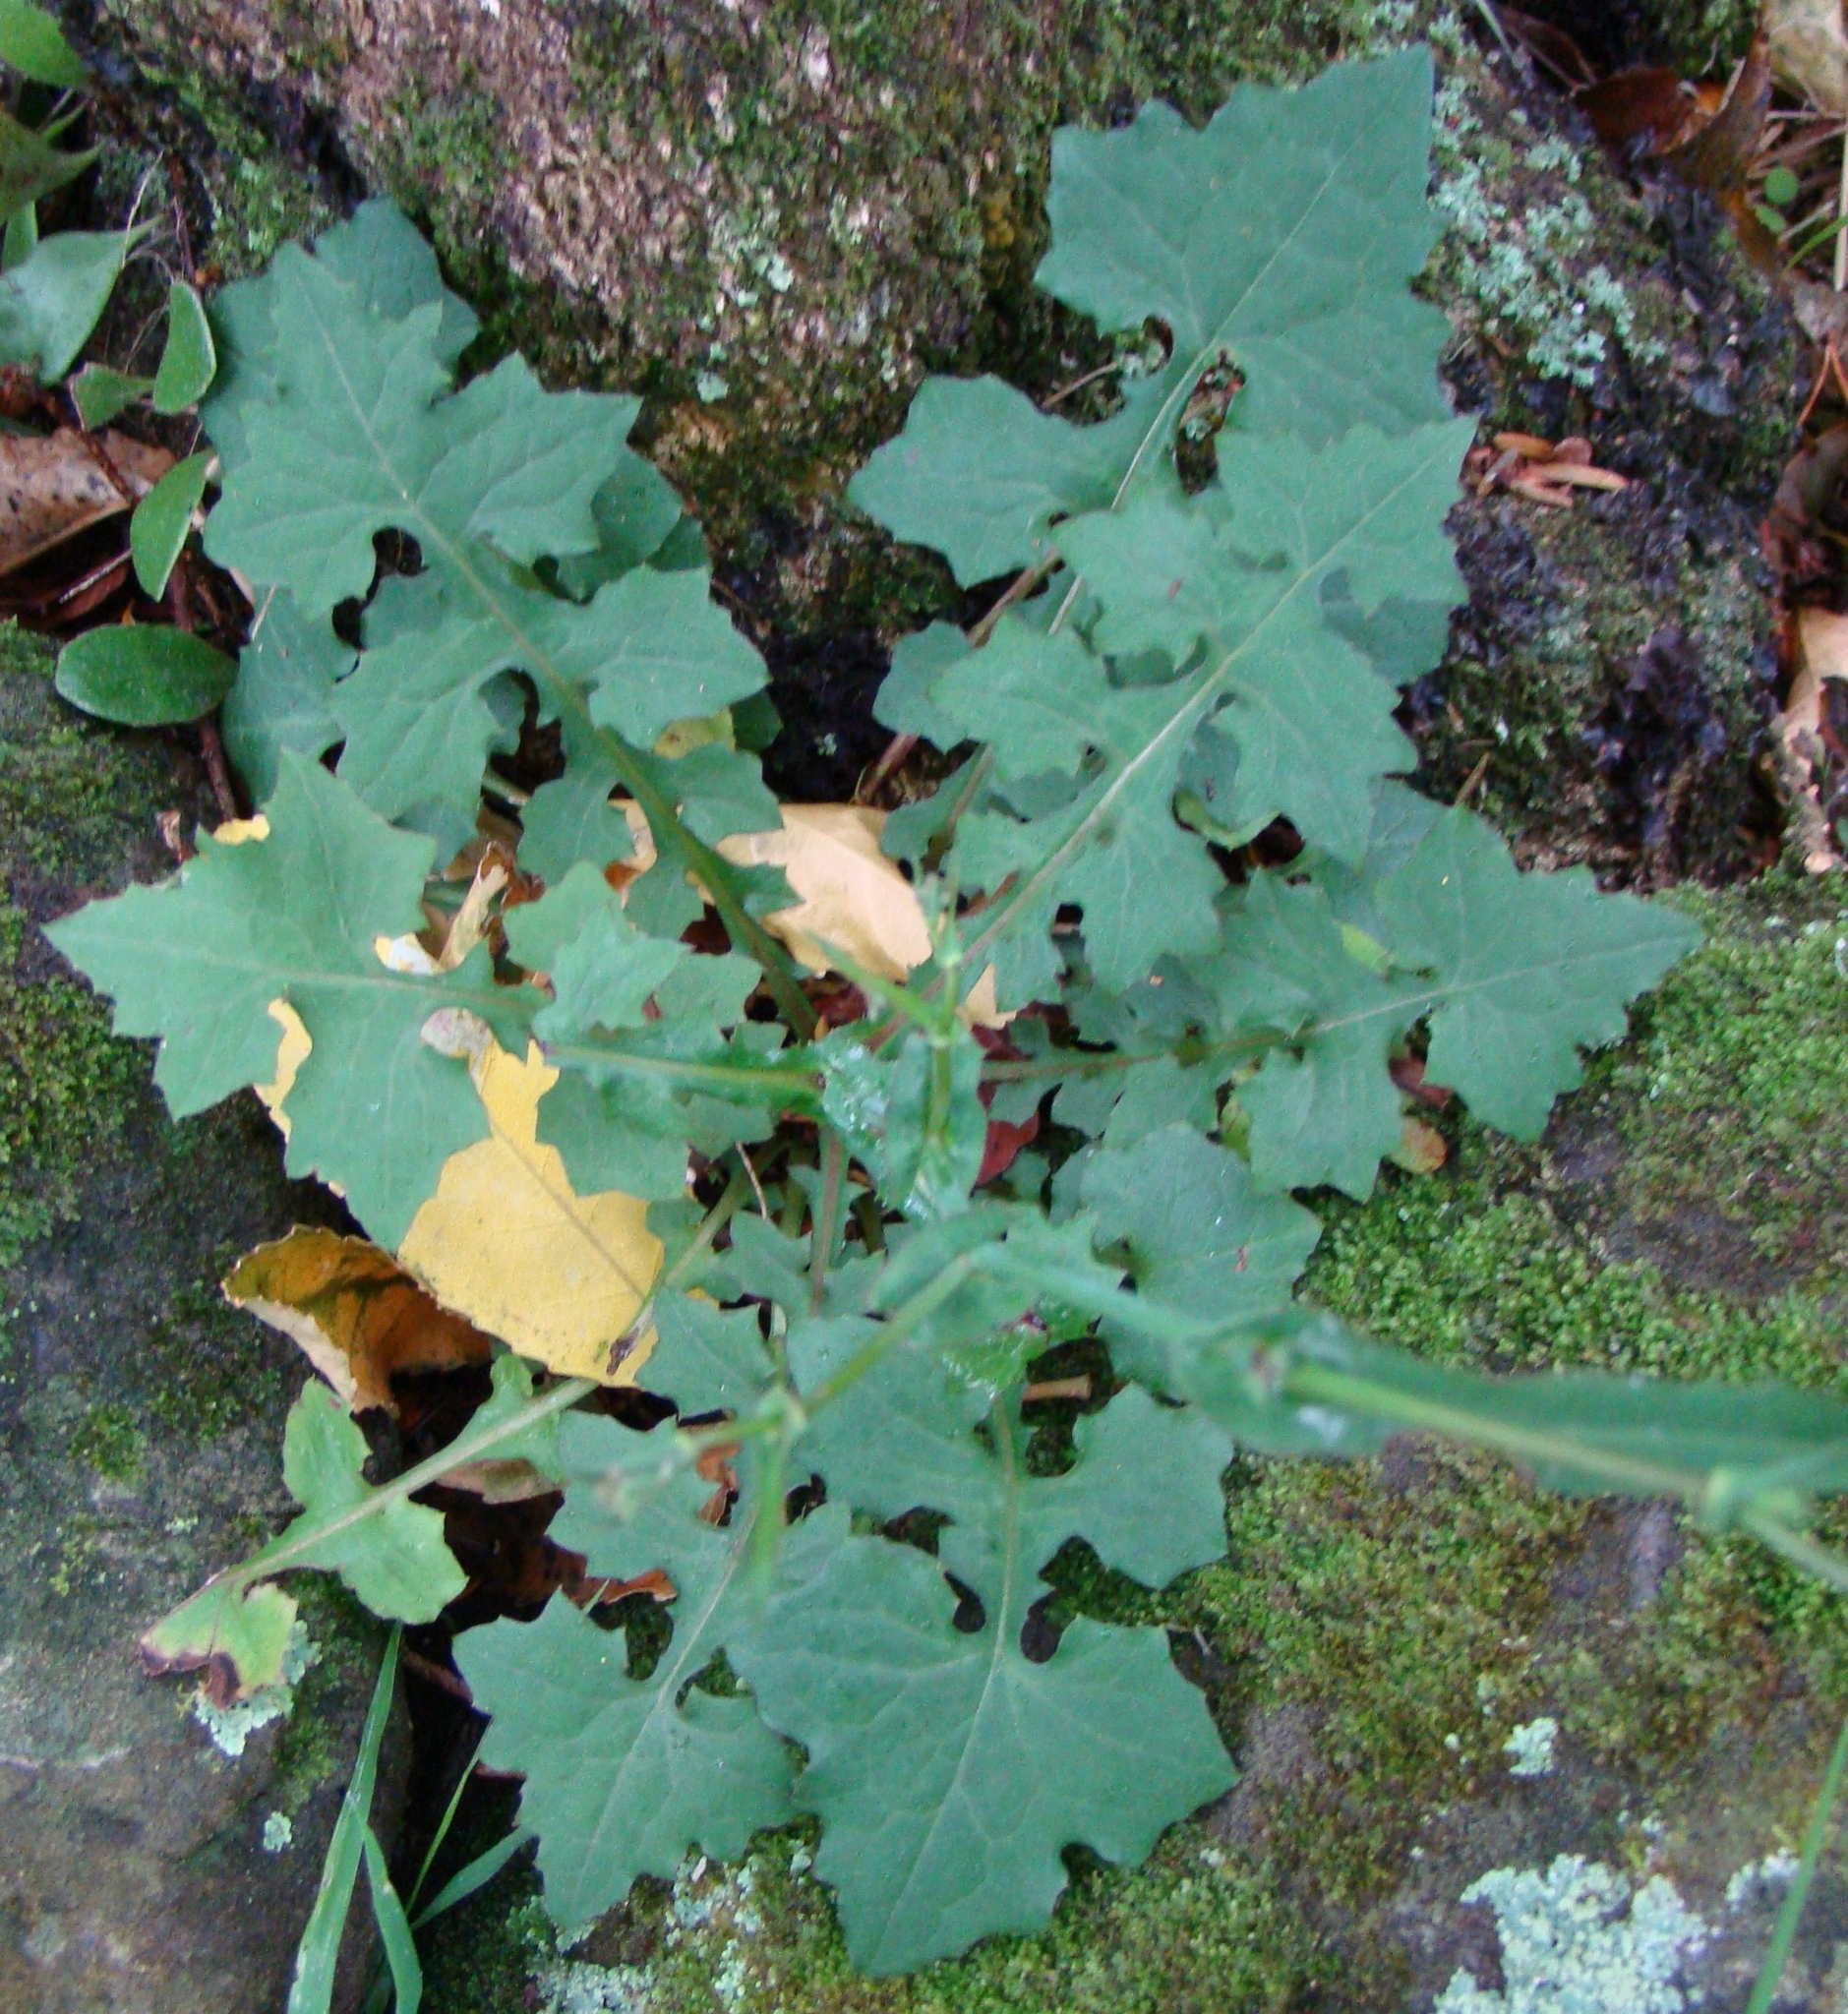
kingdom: Plantae
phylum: Tracheophyta
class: Magnoliopsida
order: Asterales
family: Asteraceae
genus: Mycelis
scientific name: Mycelis muralis
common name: Wall lettuce
